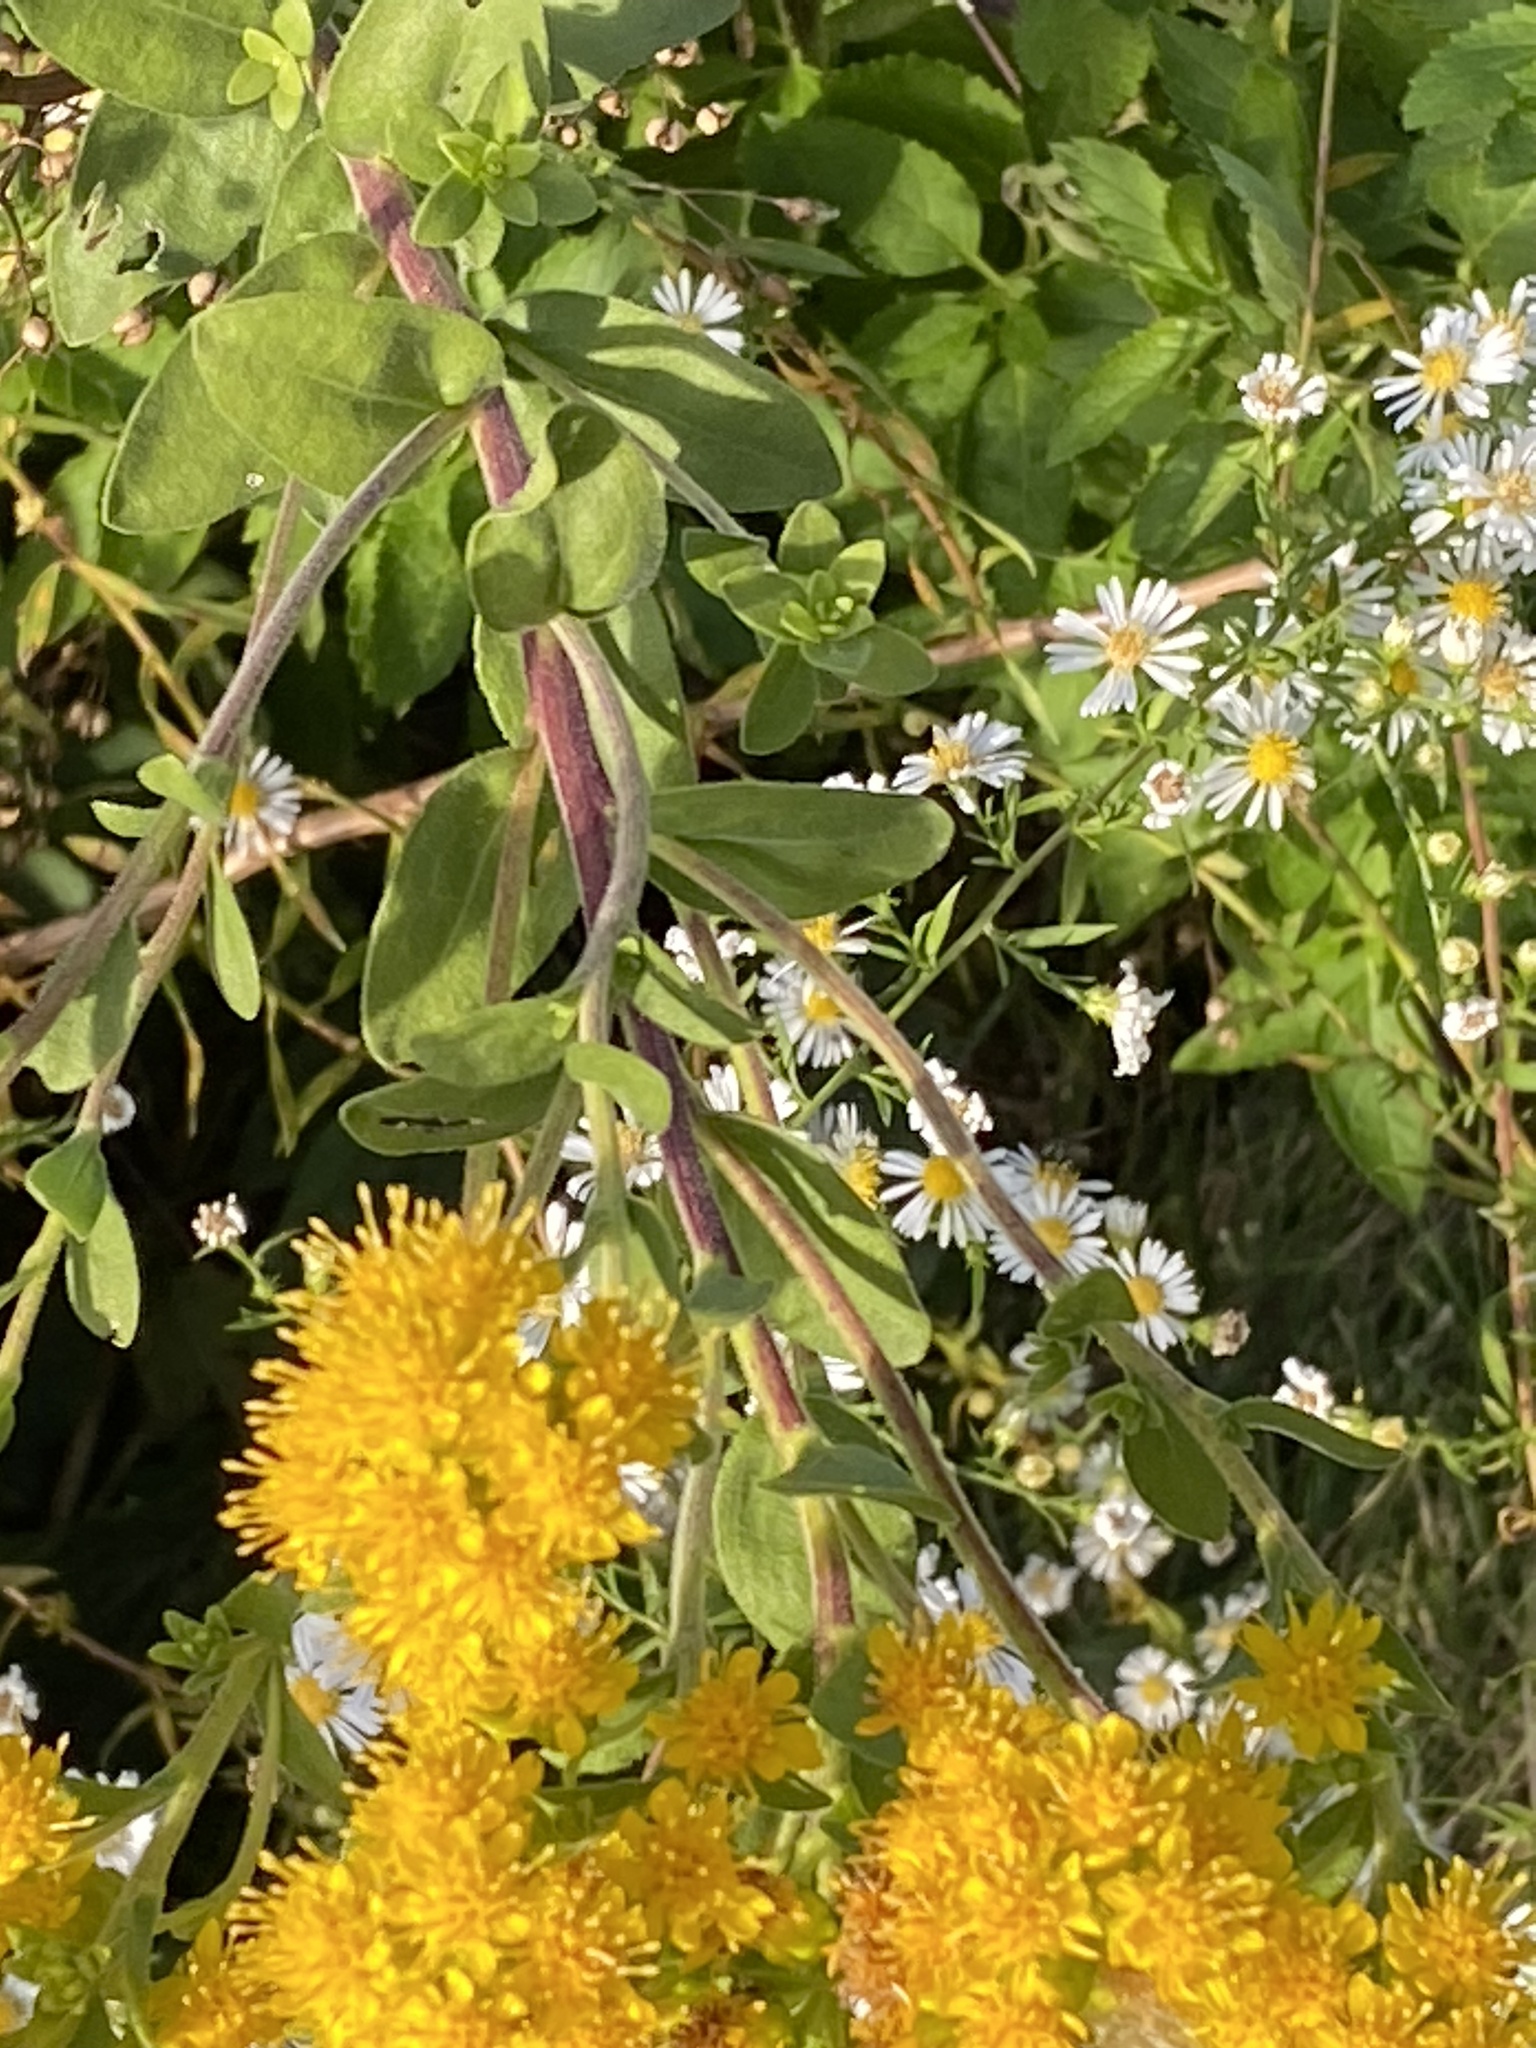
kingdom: Plantae
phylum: Tracheophyta
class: Magnoliopsida
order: Asterales
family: Asteraceae
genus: Solidago
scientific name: Solidago rigida
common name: Rigid goldenrod
